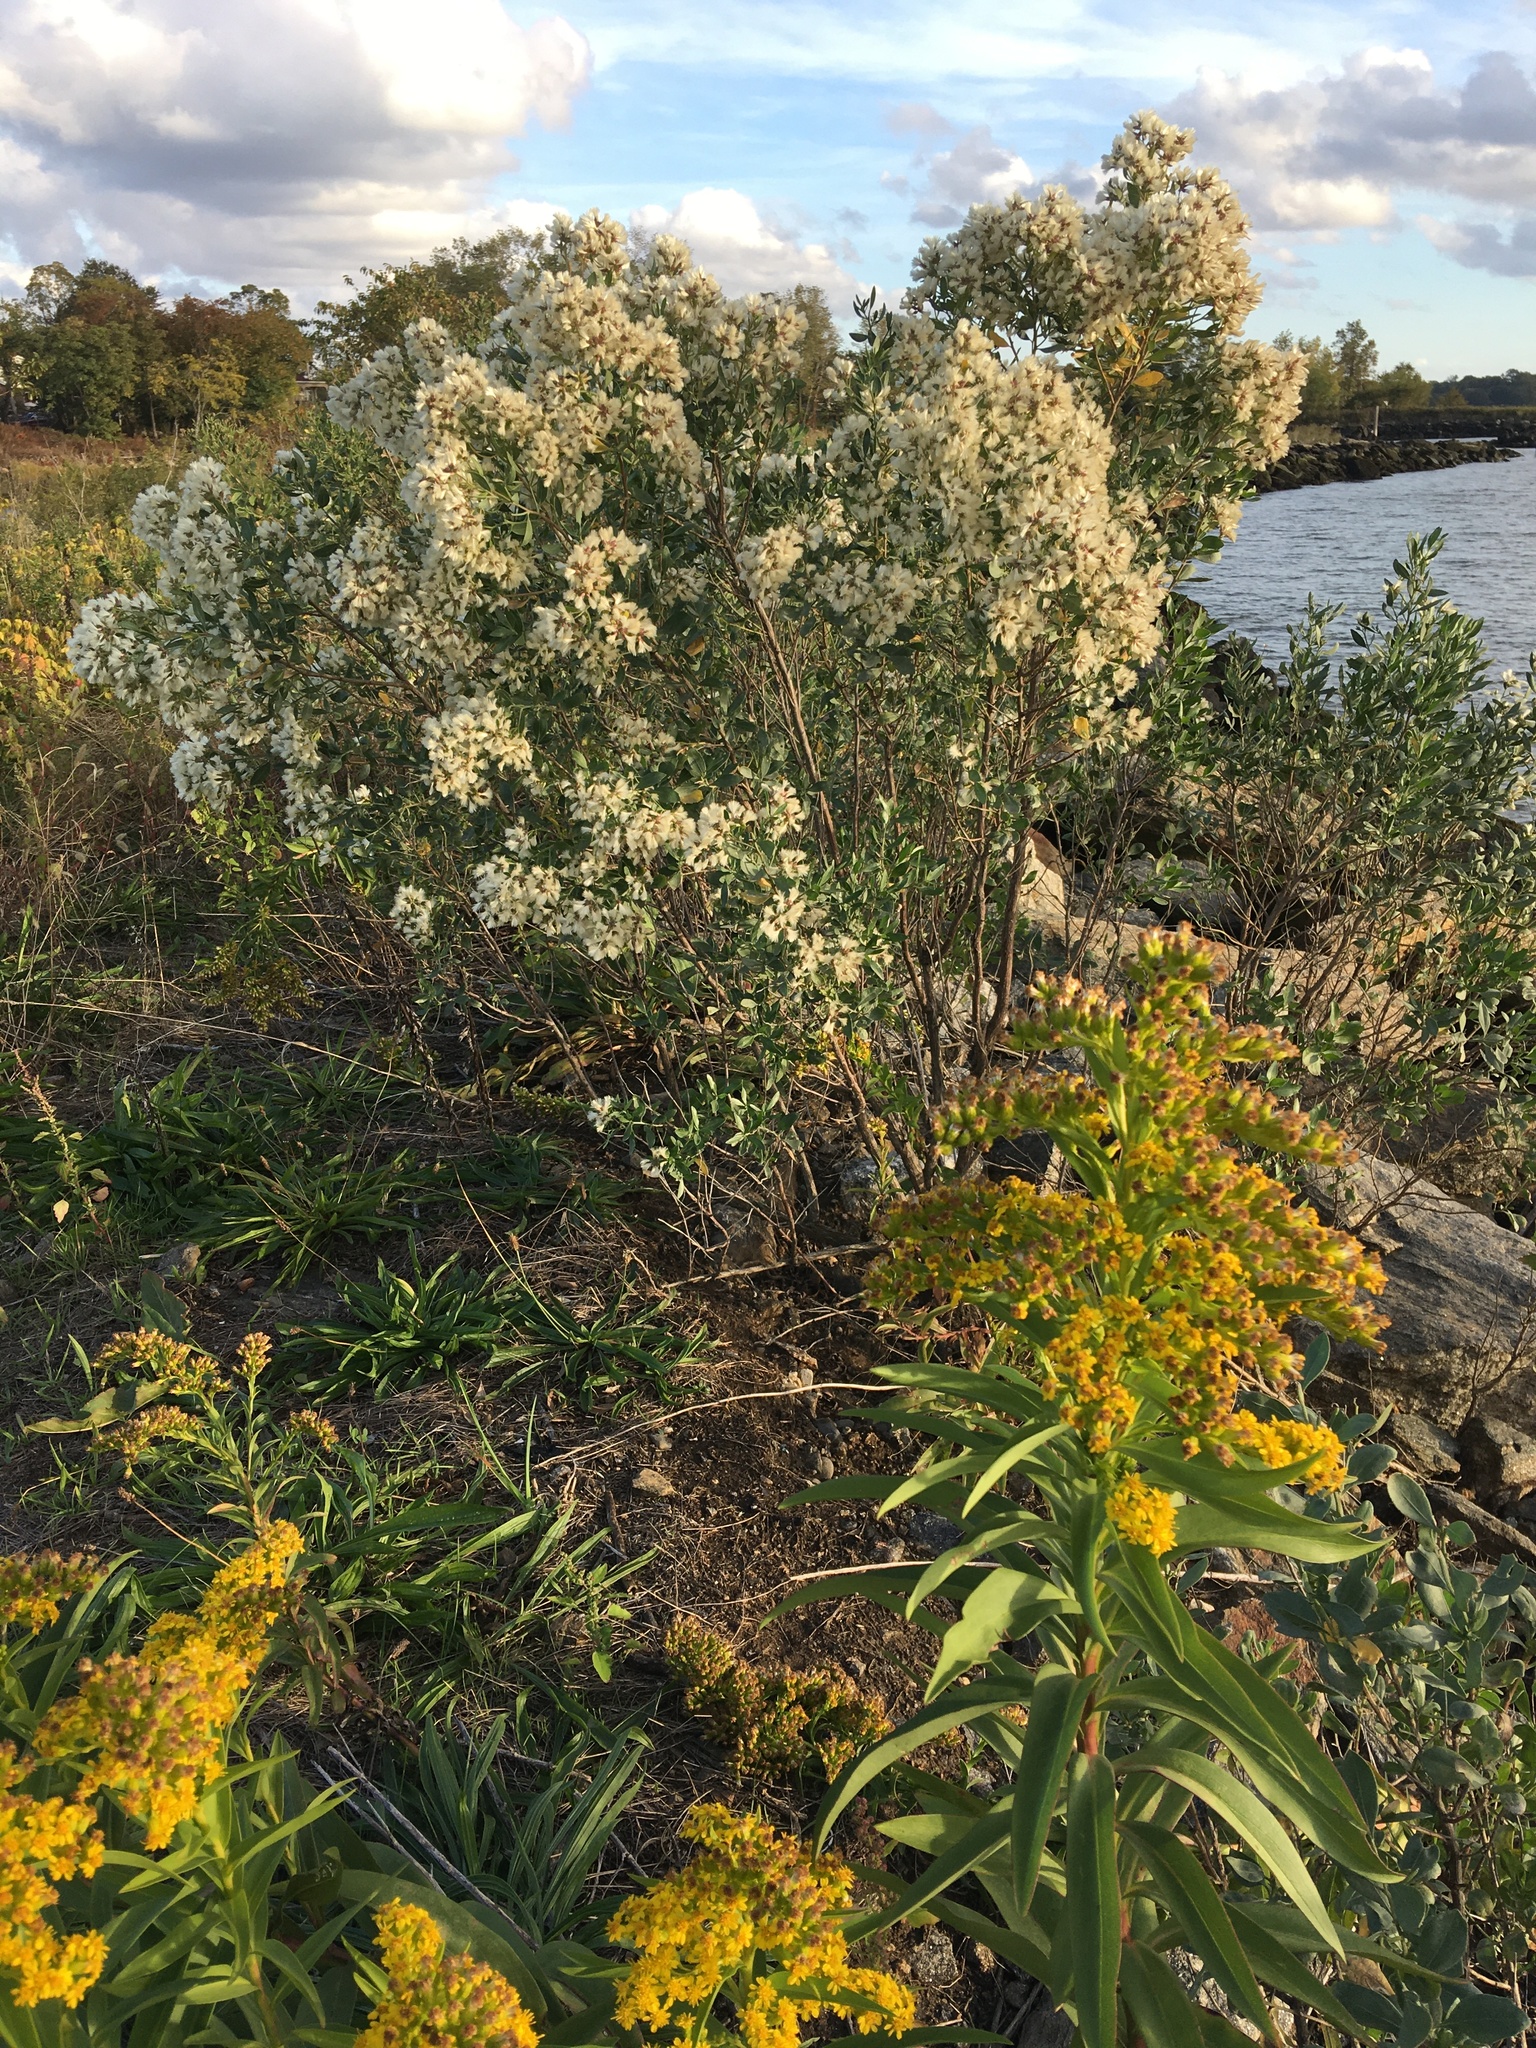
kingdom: Plantae
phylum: Tracheophyta
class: Magnoliopsida
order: Asterales
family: Asteraceae
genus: Baccharis
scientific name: Baccharis halimifolia
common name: Eastern baccharis
